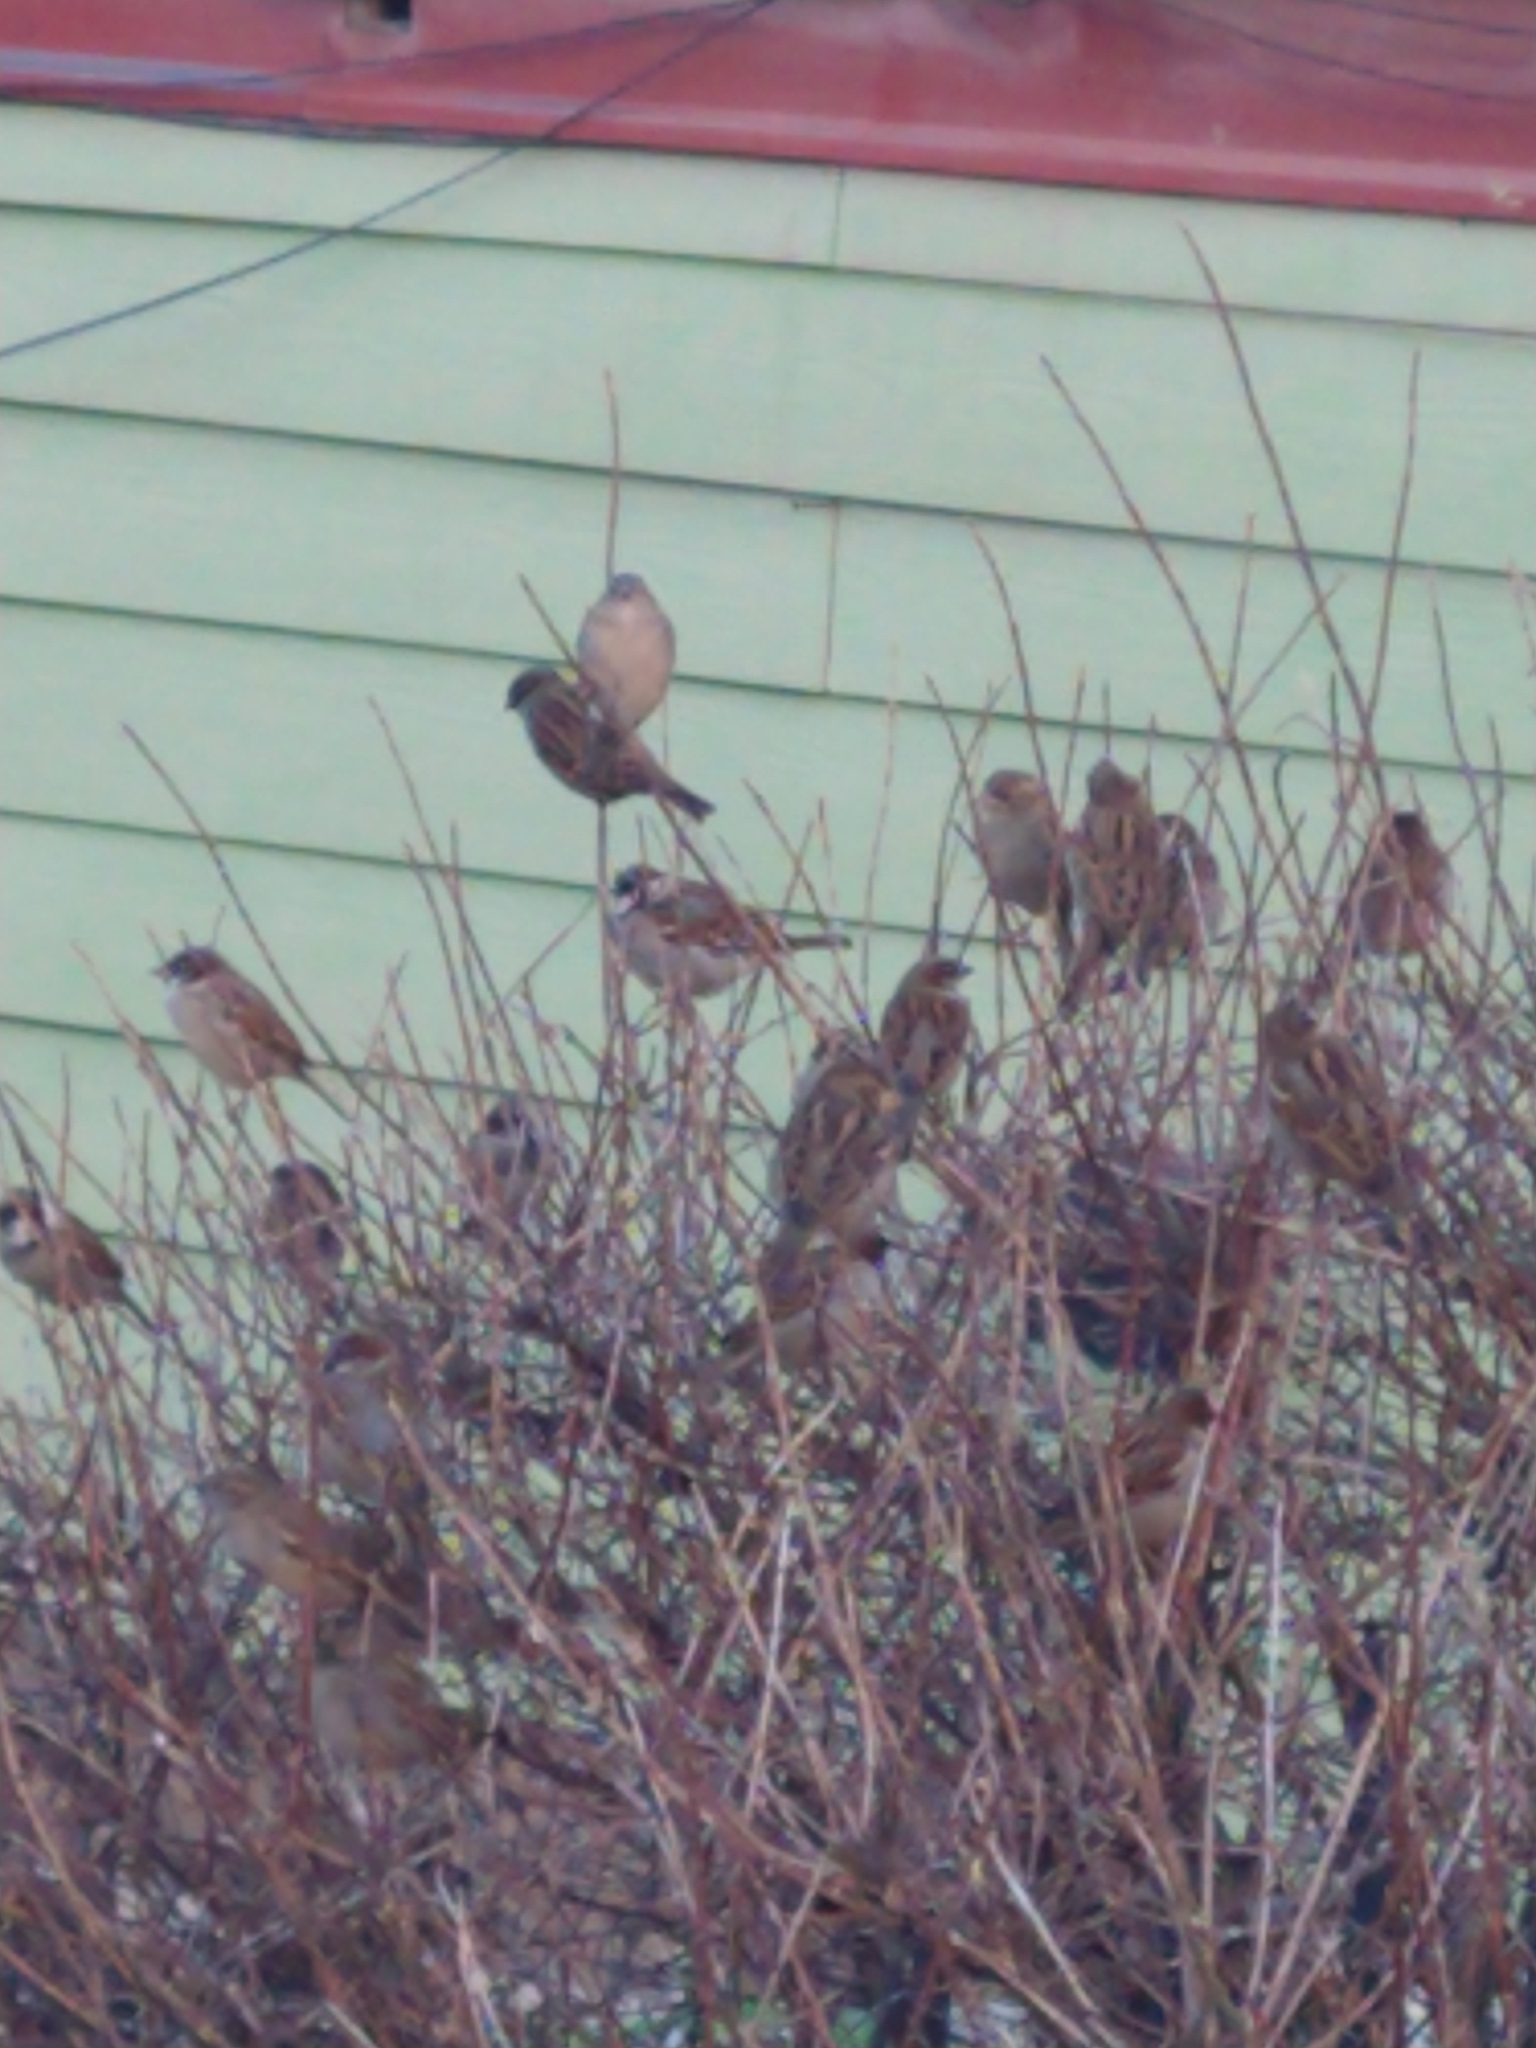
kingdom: Animalia
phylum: Chordata
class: Aves
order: Passeriformes
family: Passeridae
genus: Passer
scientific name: Passer domesticus
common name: House sparrow
